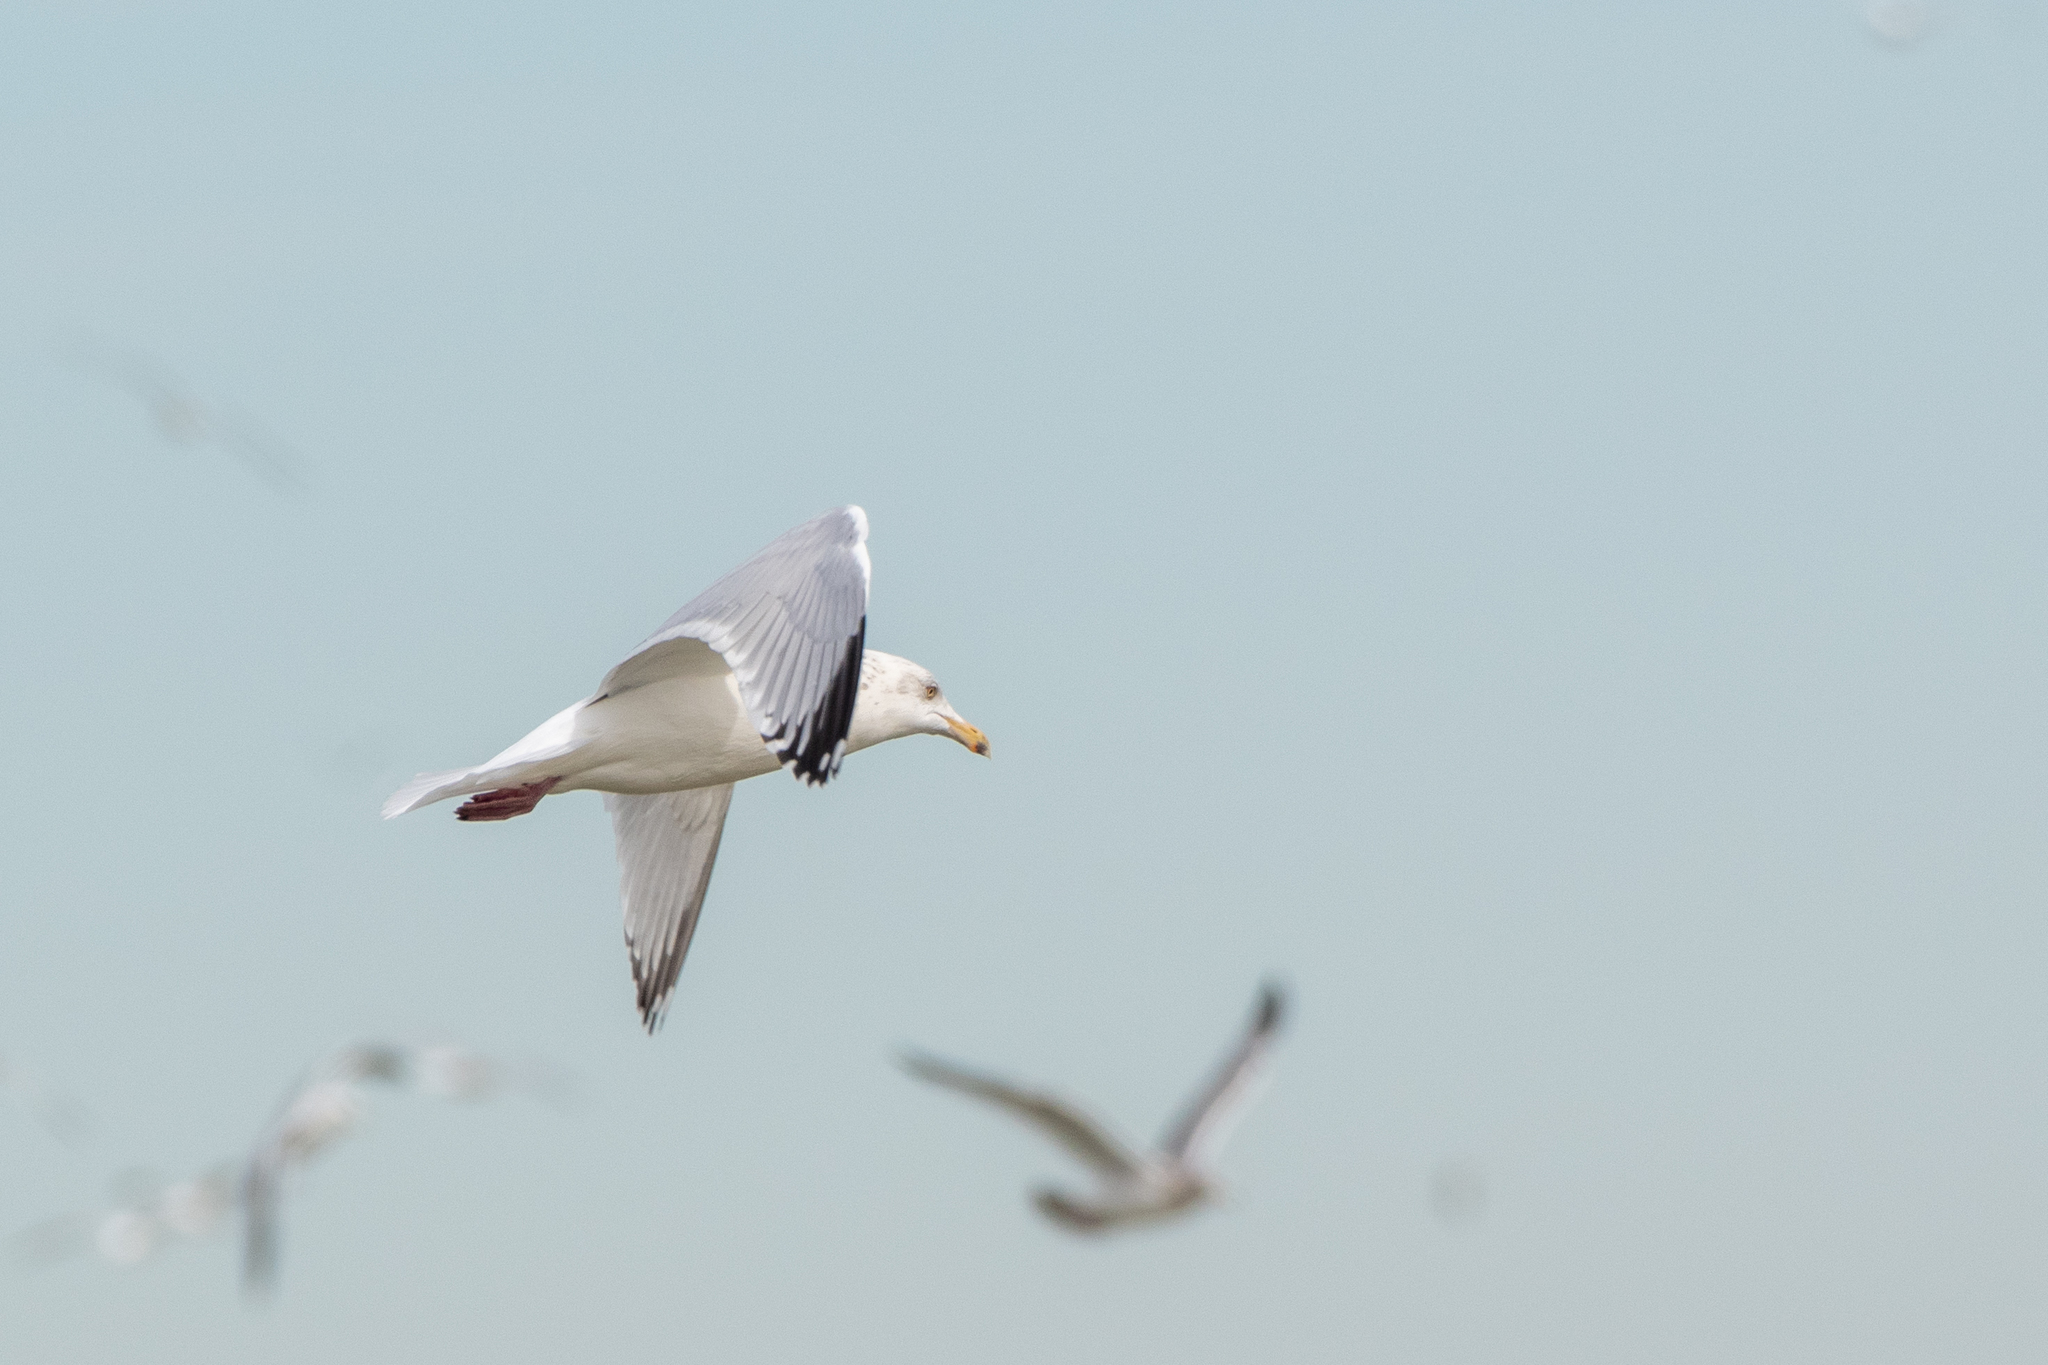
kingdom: Animalia
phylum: Chordata
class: Aves
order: Charadriiformes
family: Laridae
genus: Larus
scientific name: Larus argentatus
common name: Herring gull
